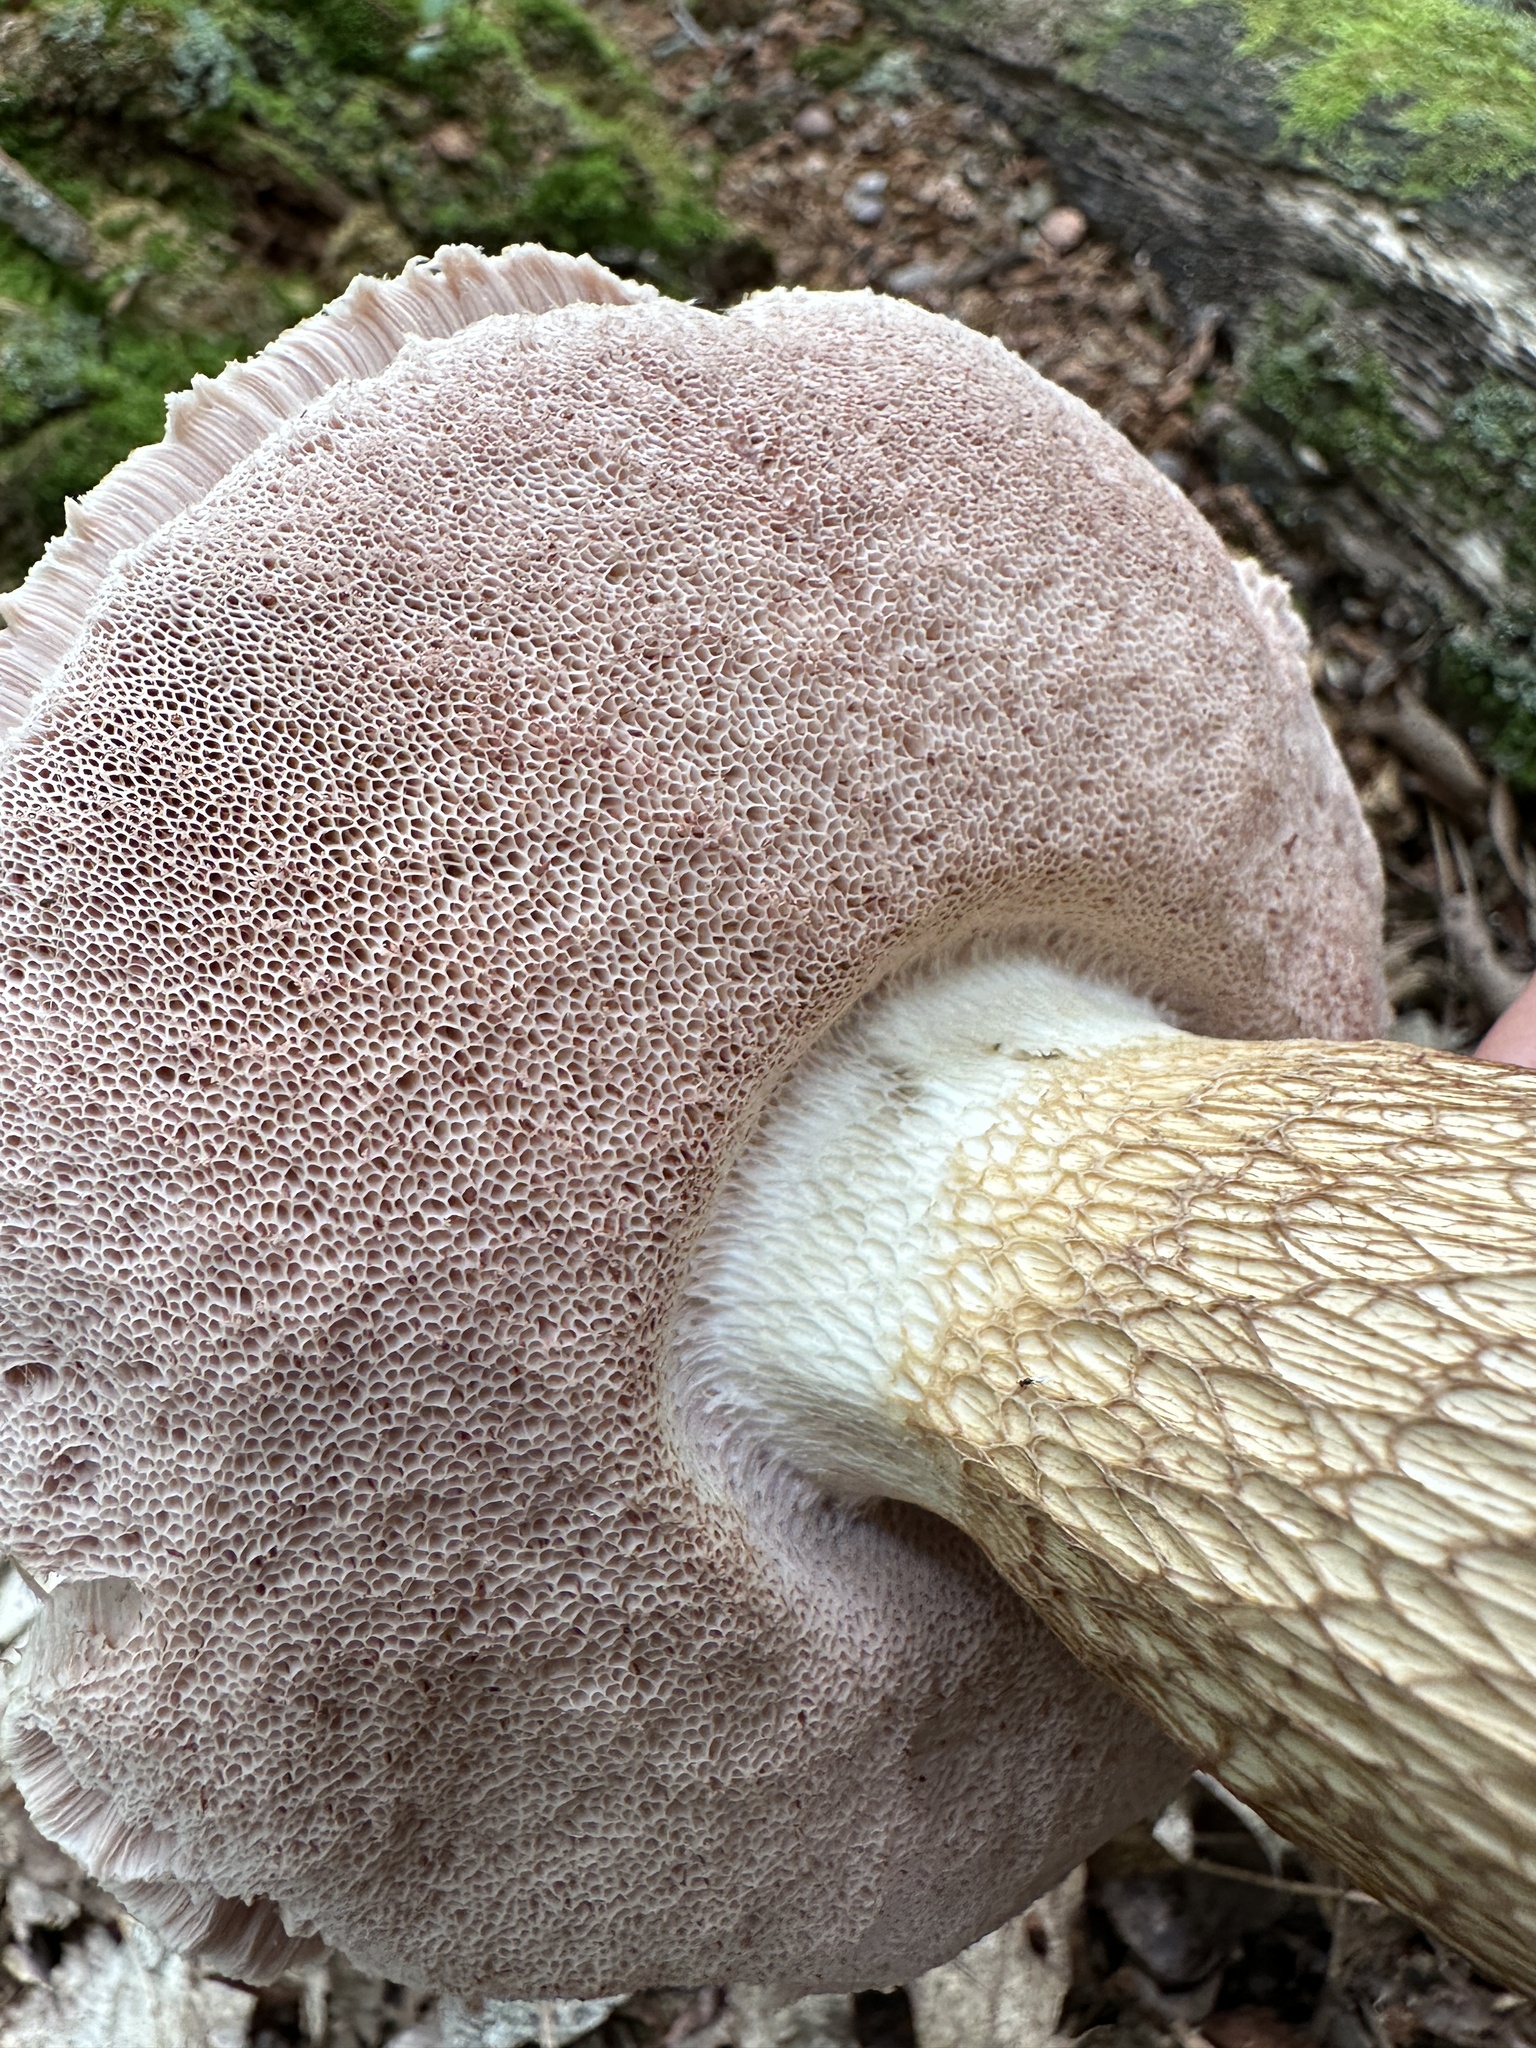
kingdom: Fungi
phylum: Basidiomycota
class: Agaricomycetes
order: Boletales
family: Boletaceae
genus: Tylopilus
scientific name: Tylopilus felleus
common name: Bitter bolete
